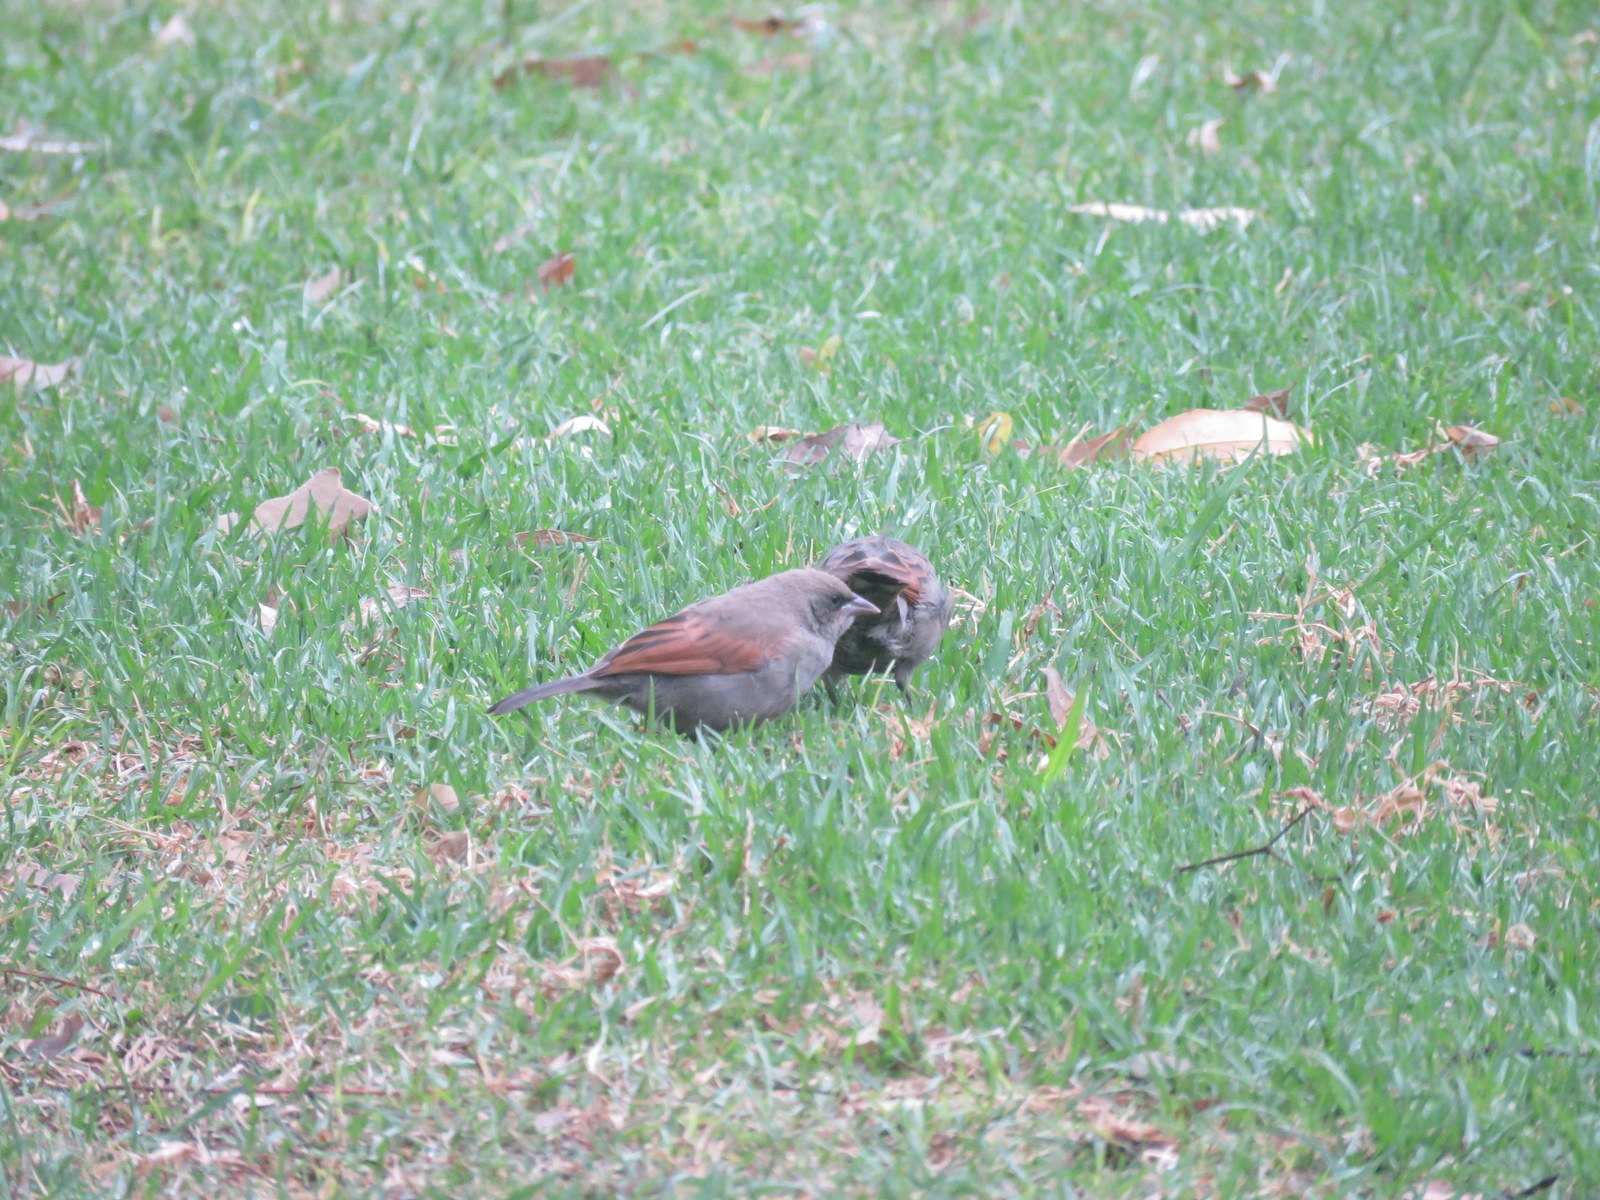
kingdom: Animalia
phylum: Chordata
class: Aves
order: Passeriformes
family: Icteridae
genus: Agelaioides
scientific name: Agelaioides badius
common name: Baywing
